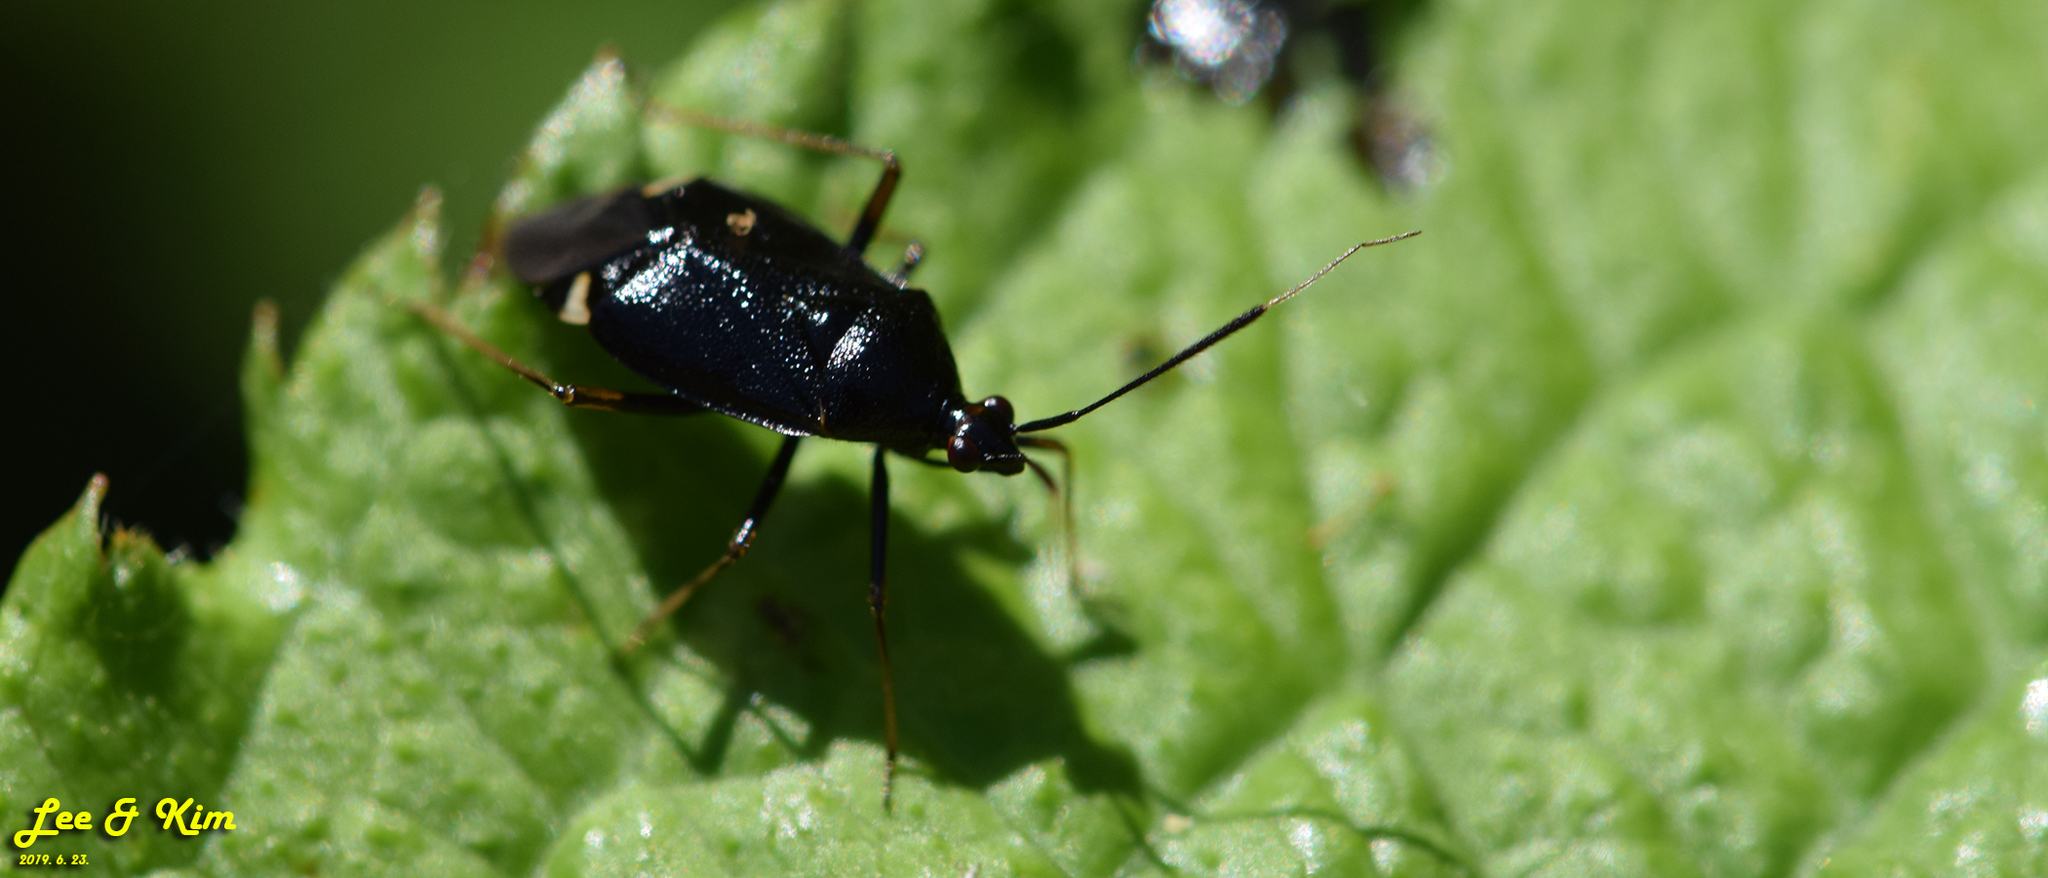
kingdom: Animalia
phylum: Arthropoda
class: Insecta
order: Hemiptera
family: Miridae
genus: Deraeocoris
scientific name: Deraeocoris ater
